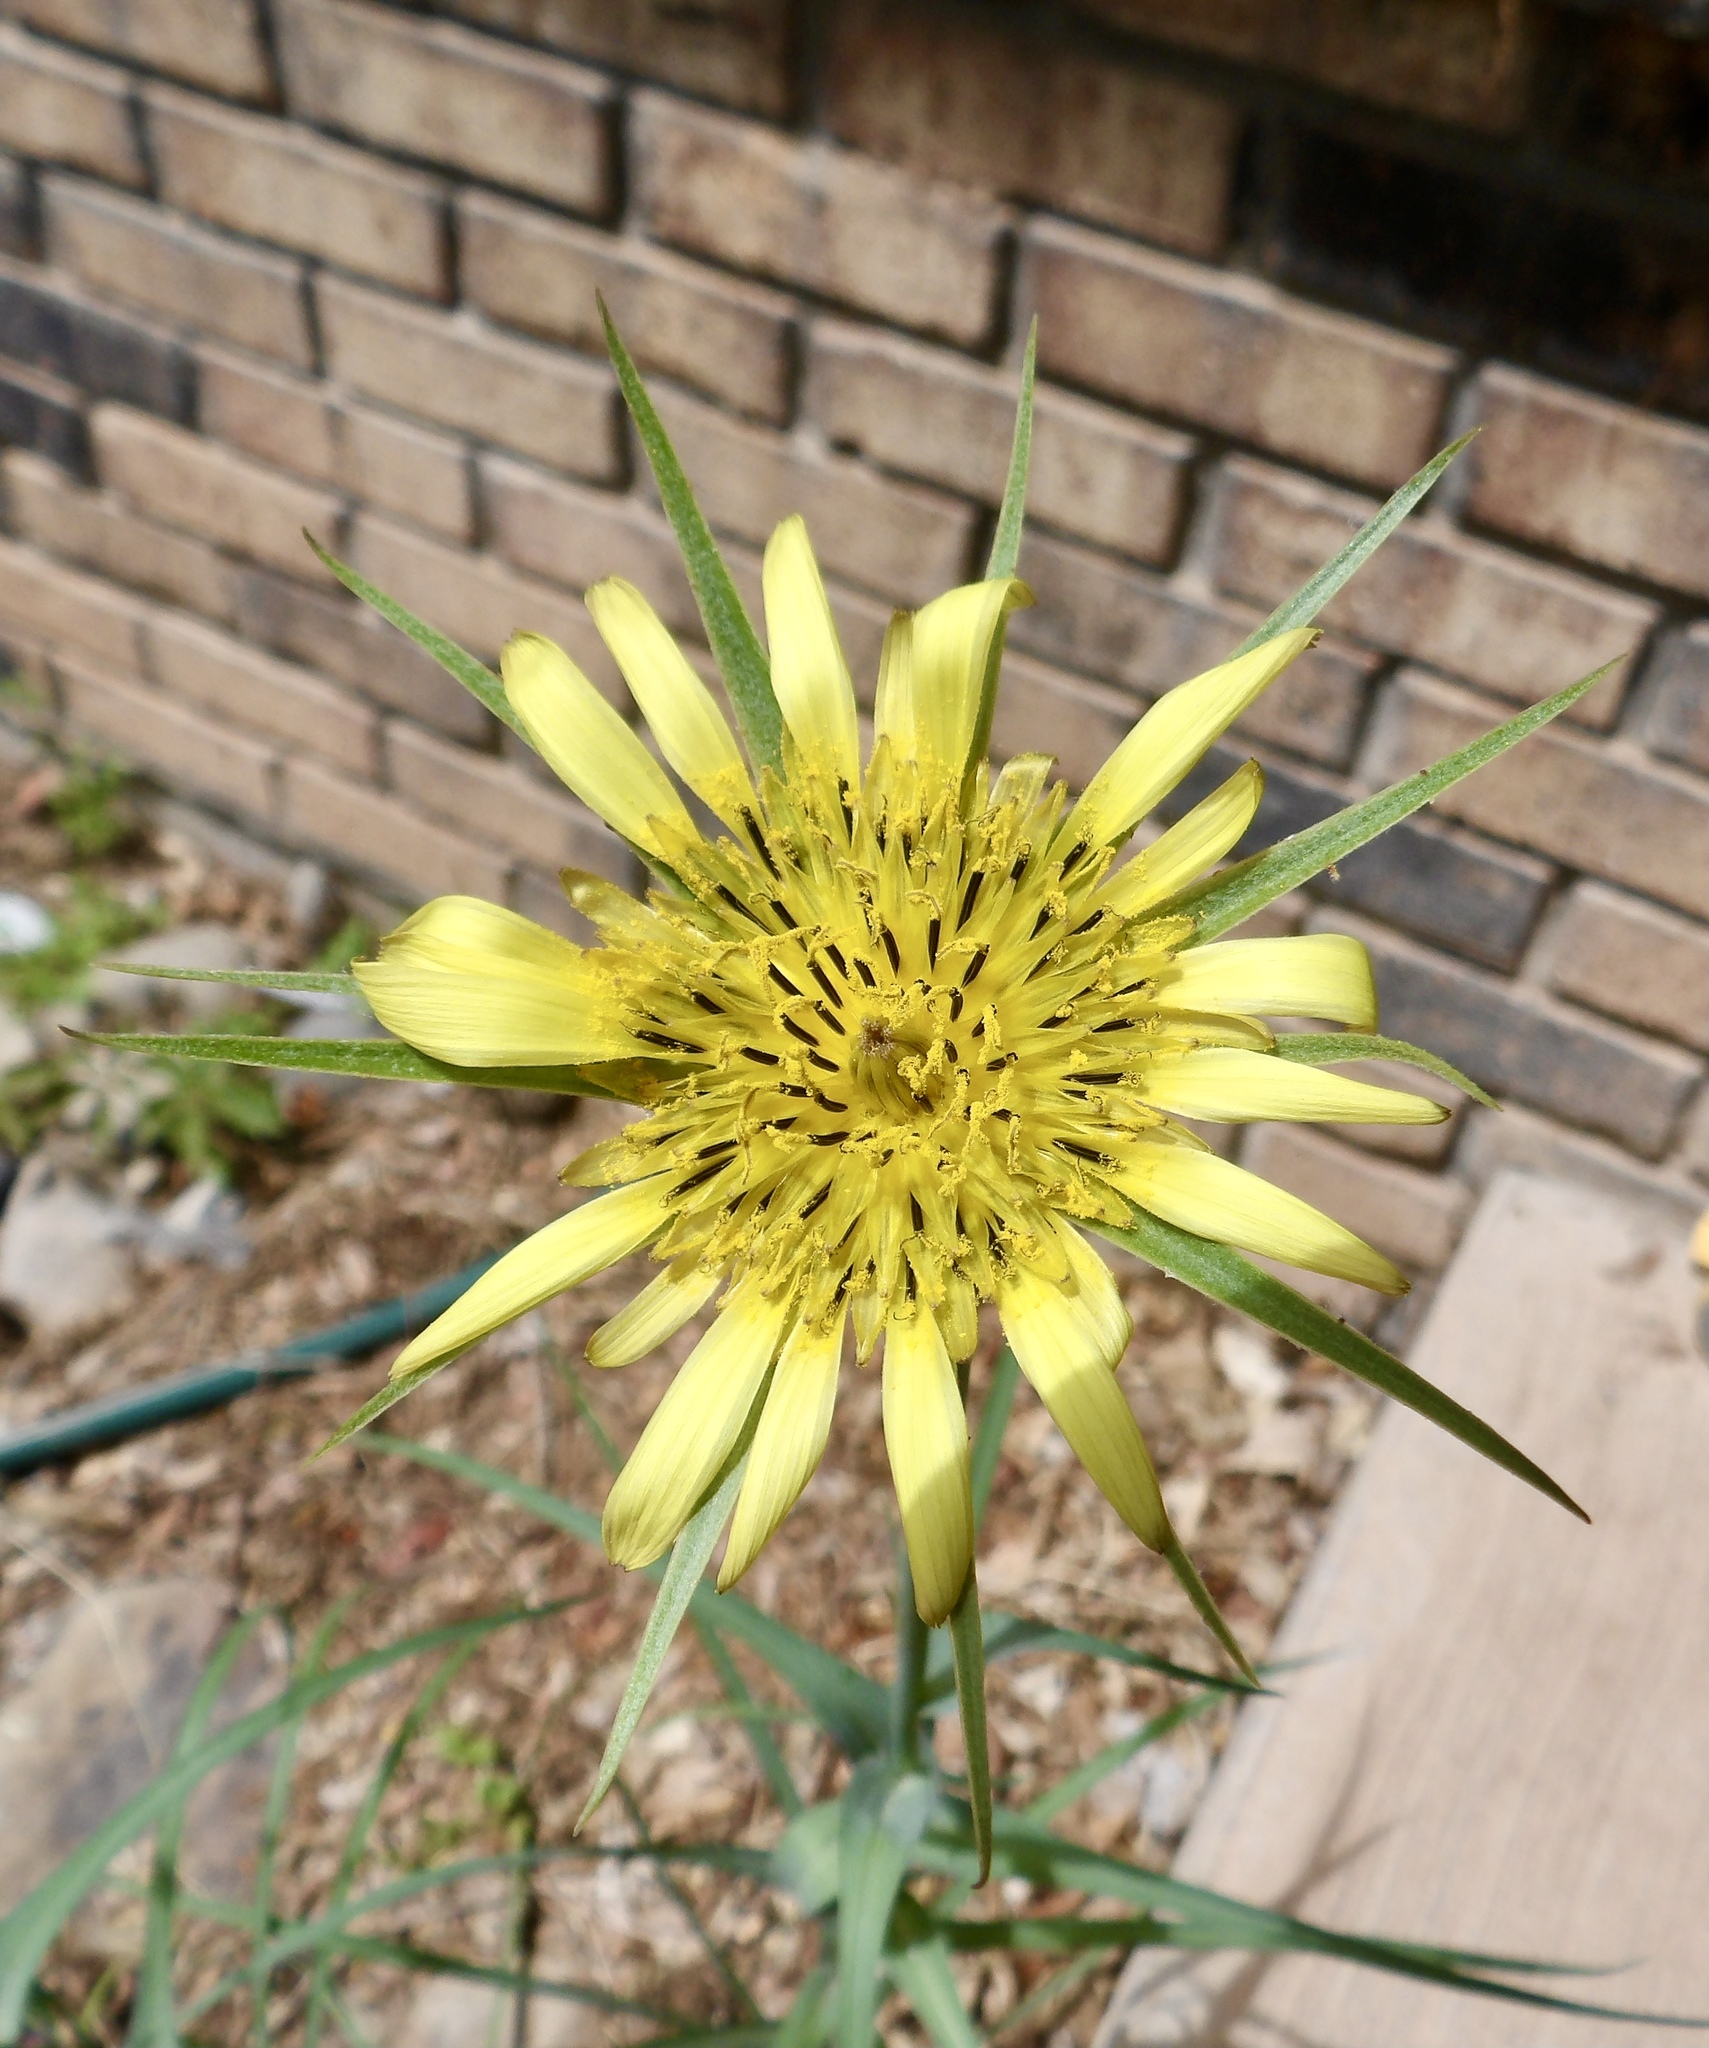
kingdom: Plantae
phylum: Tracheophyta
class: Magnoliopsida
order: Asterales
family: Asteraceae
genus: Tragopogon
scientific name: Tragopogon dubius
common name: Yellow salsify
